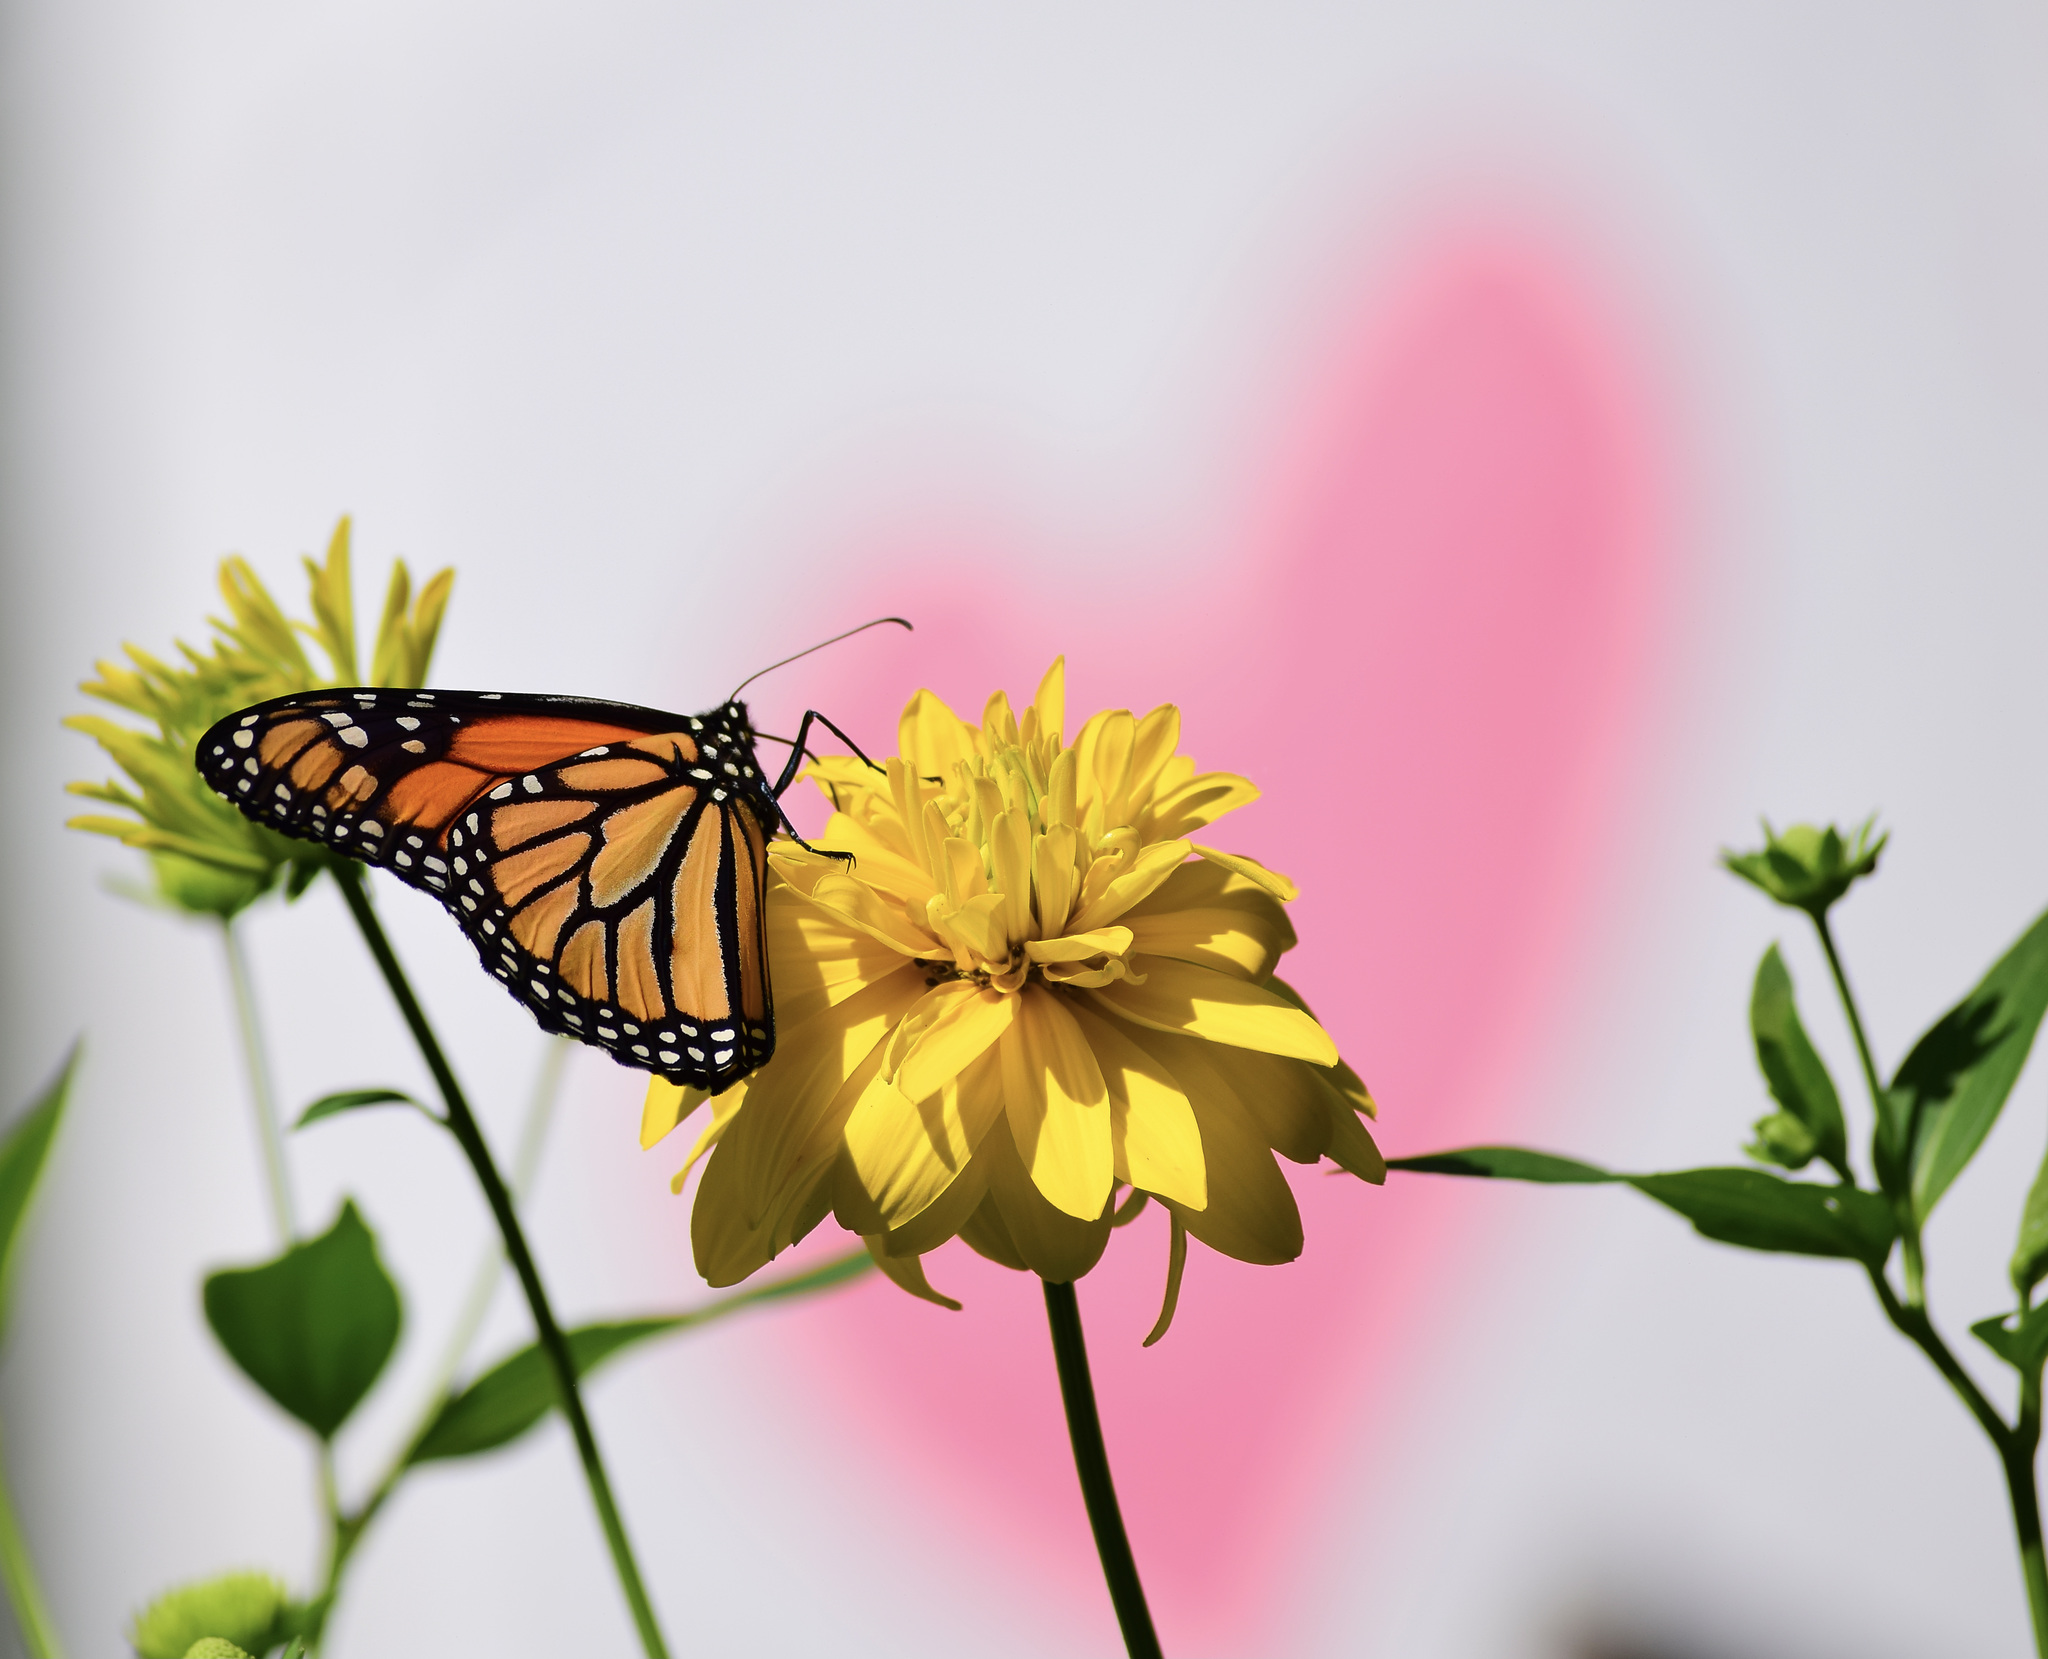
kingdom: Animalia
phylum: Arthropoda
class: Insecta
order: Lepidoptera
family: Nymphalidae
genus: Danaus
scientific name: Danaus plexippus
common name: Monarch
